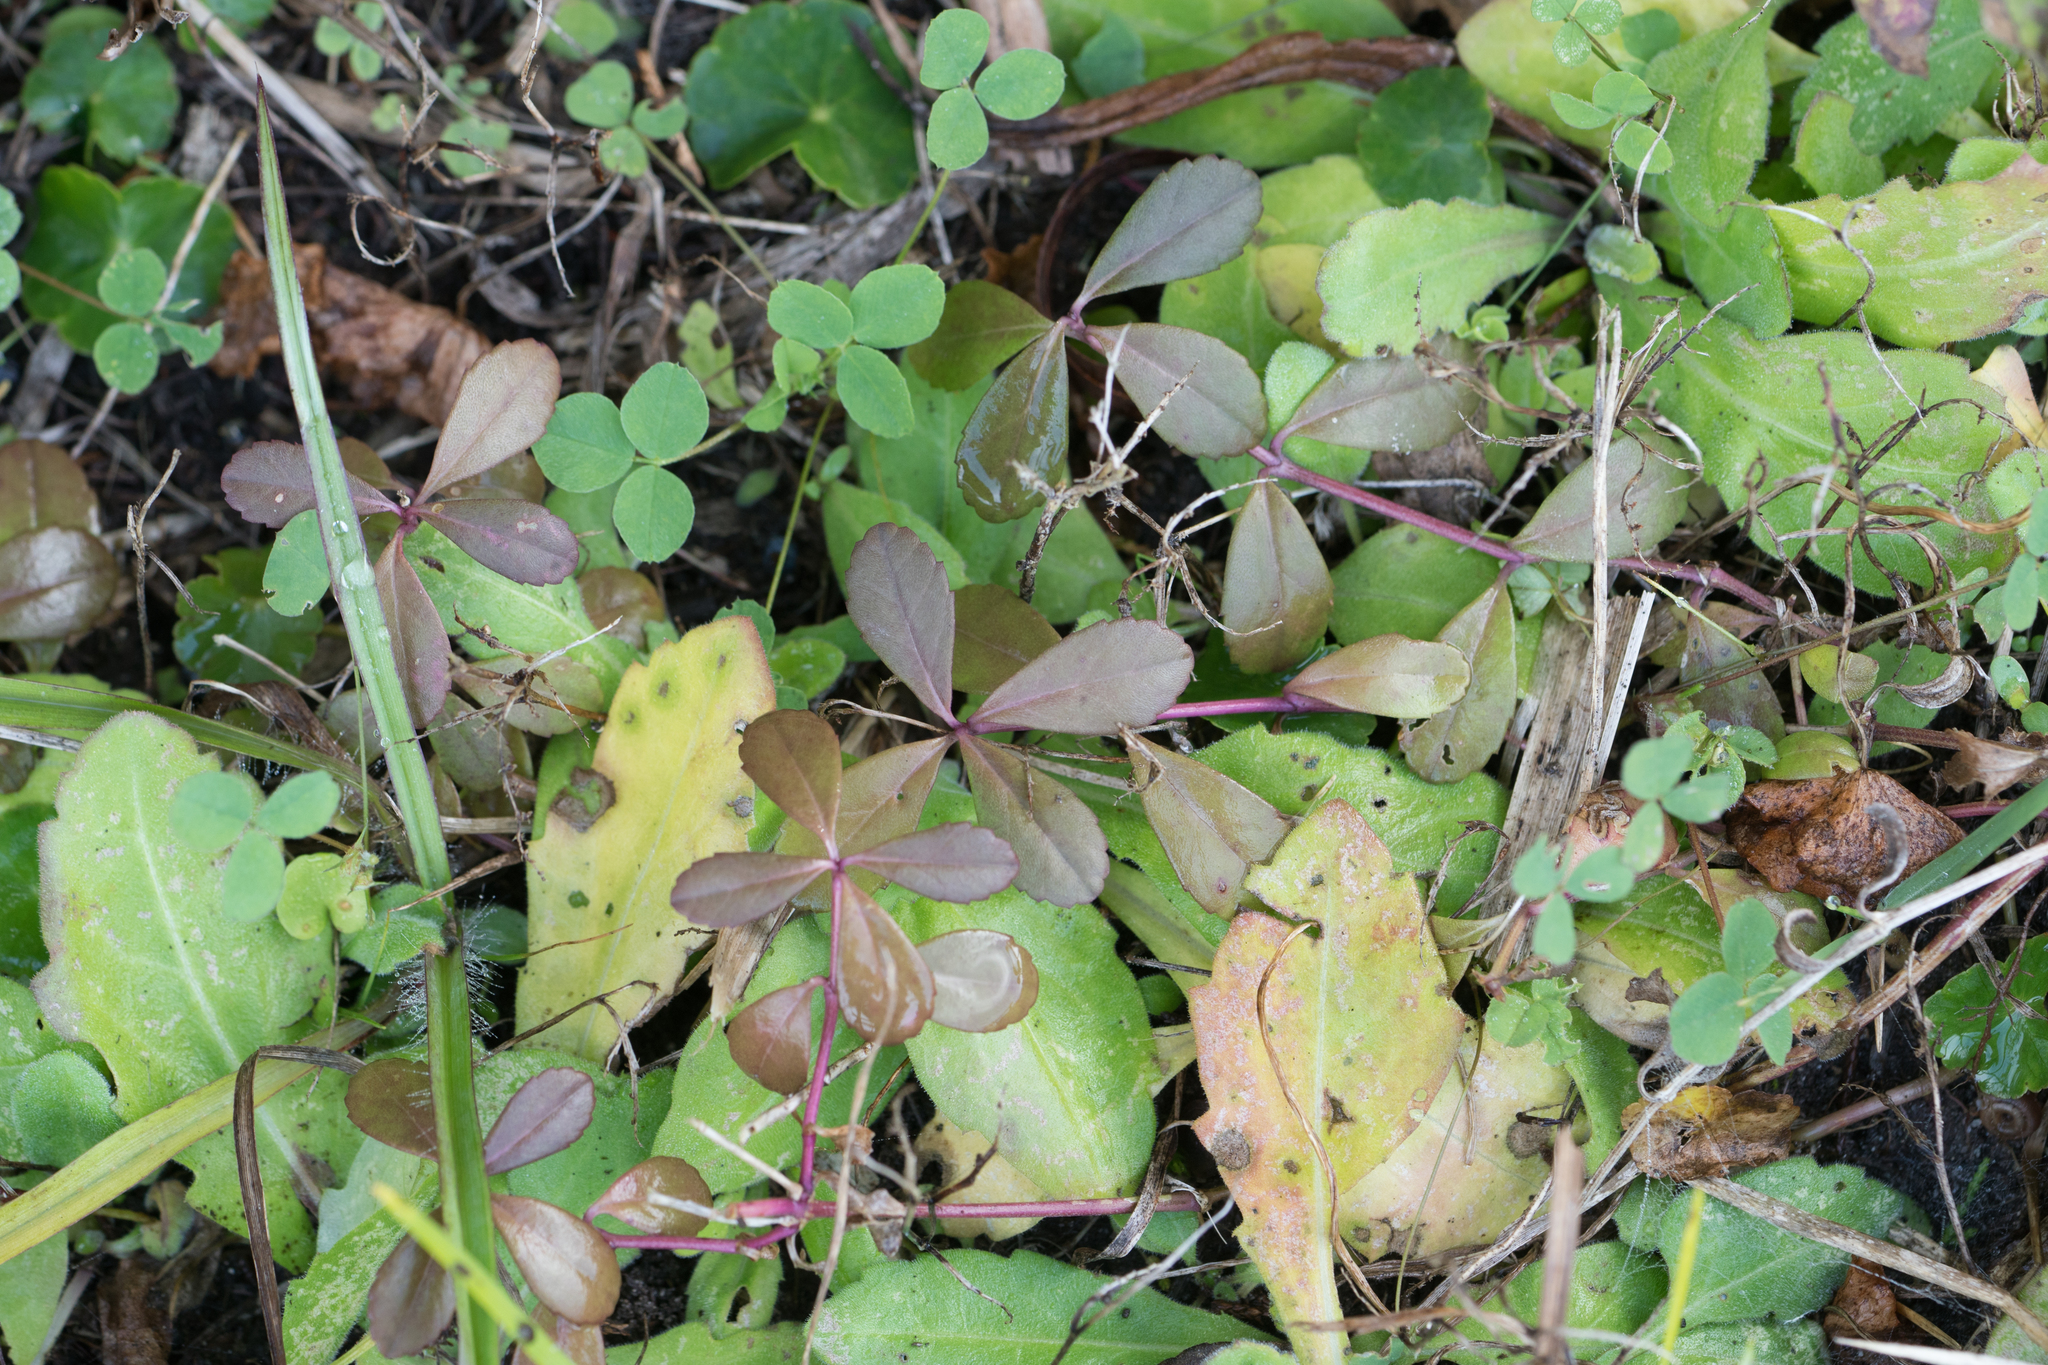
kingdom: Plantae
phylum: Tracheophyta
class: Magnoliopsida
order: Lamiales
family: Verbenaceae
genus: Phyla
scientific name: Phyla nodiflora
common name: Frogfruit
